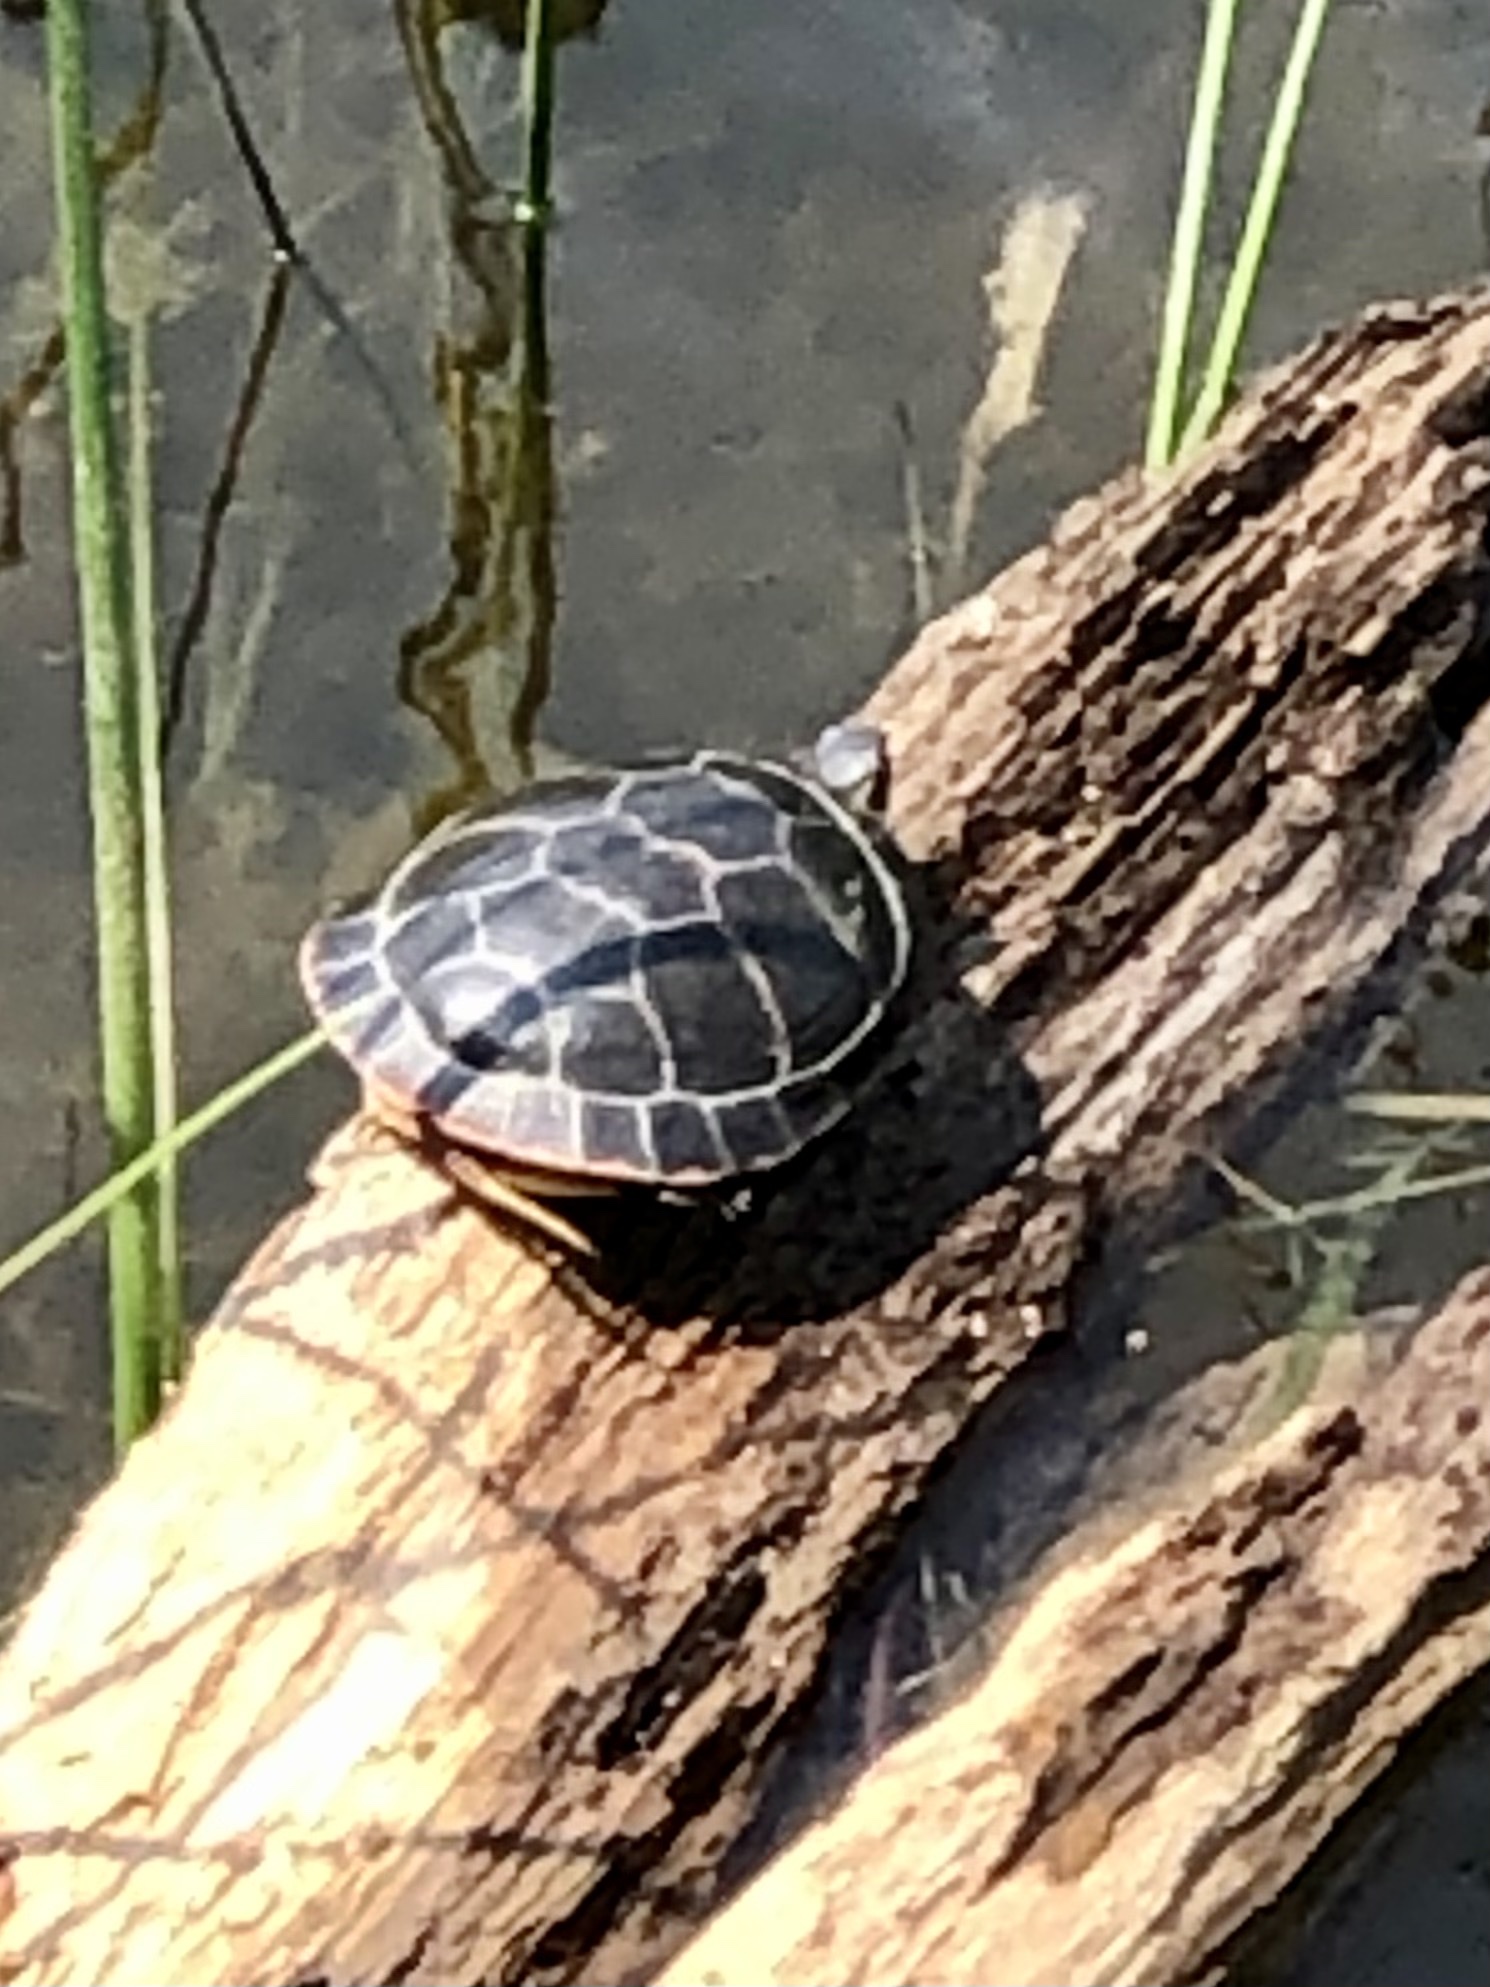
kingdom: Animalia
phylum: Chordata
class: Testudines
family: Emydidae
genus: Chrysemys
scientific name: Chrysemys picta
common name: Painted turtle
